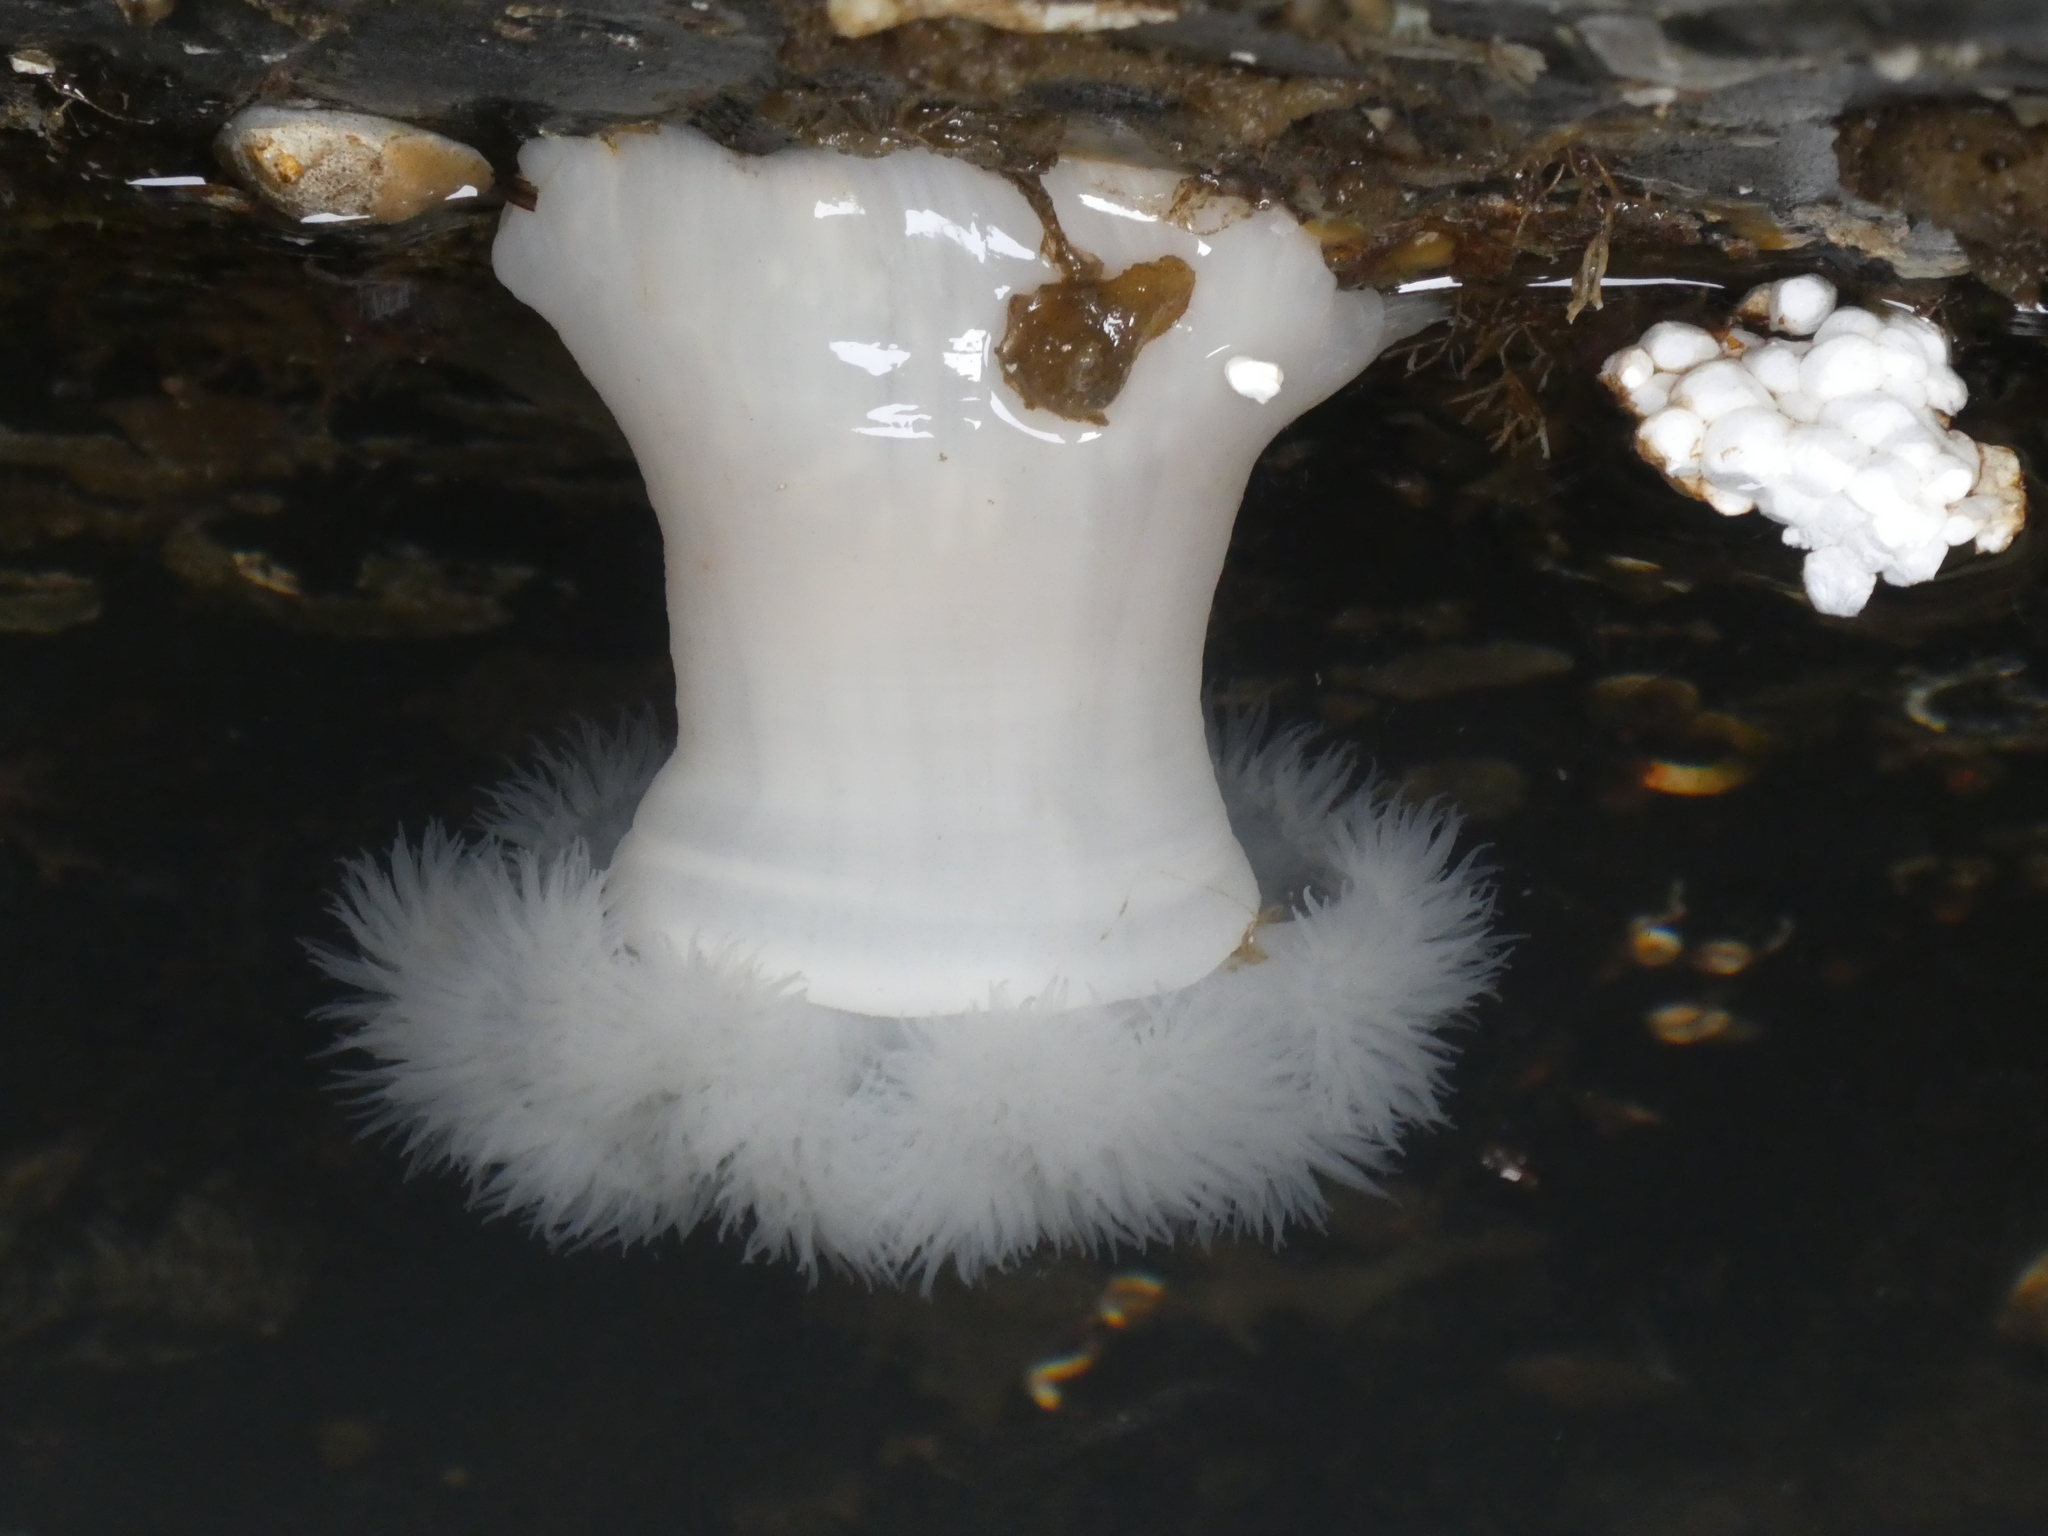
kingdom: Animalia
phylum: Cnidaria
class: Anthozoa
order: Actiniaria
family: Metridiidae
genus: Metridium
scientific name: Metridium senile
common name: Clonal plumose anemone
